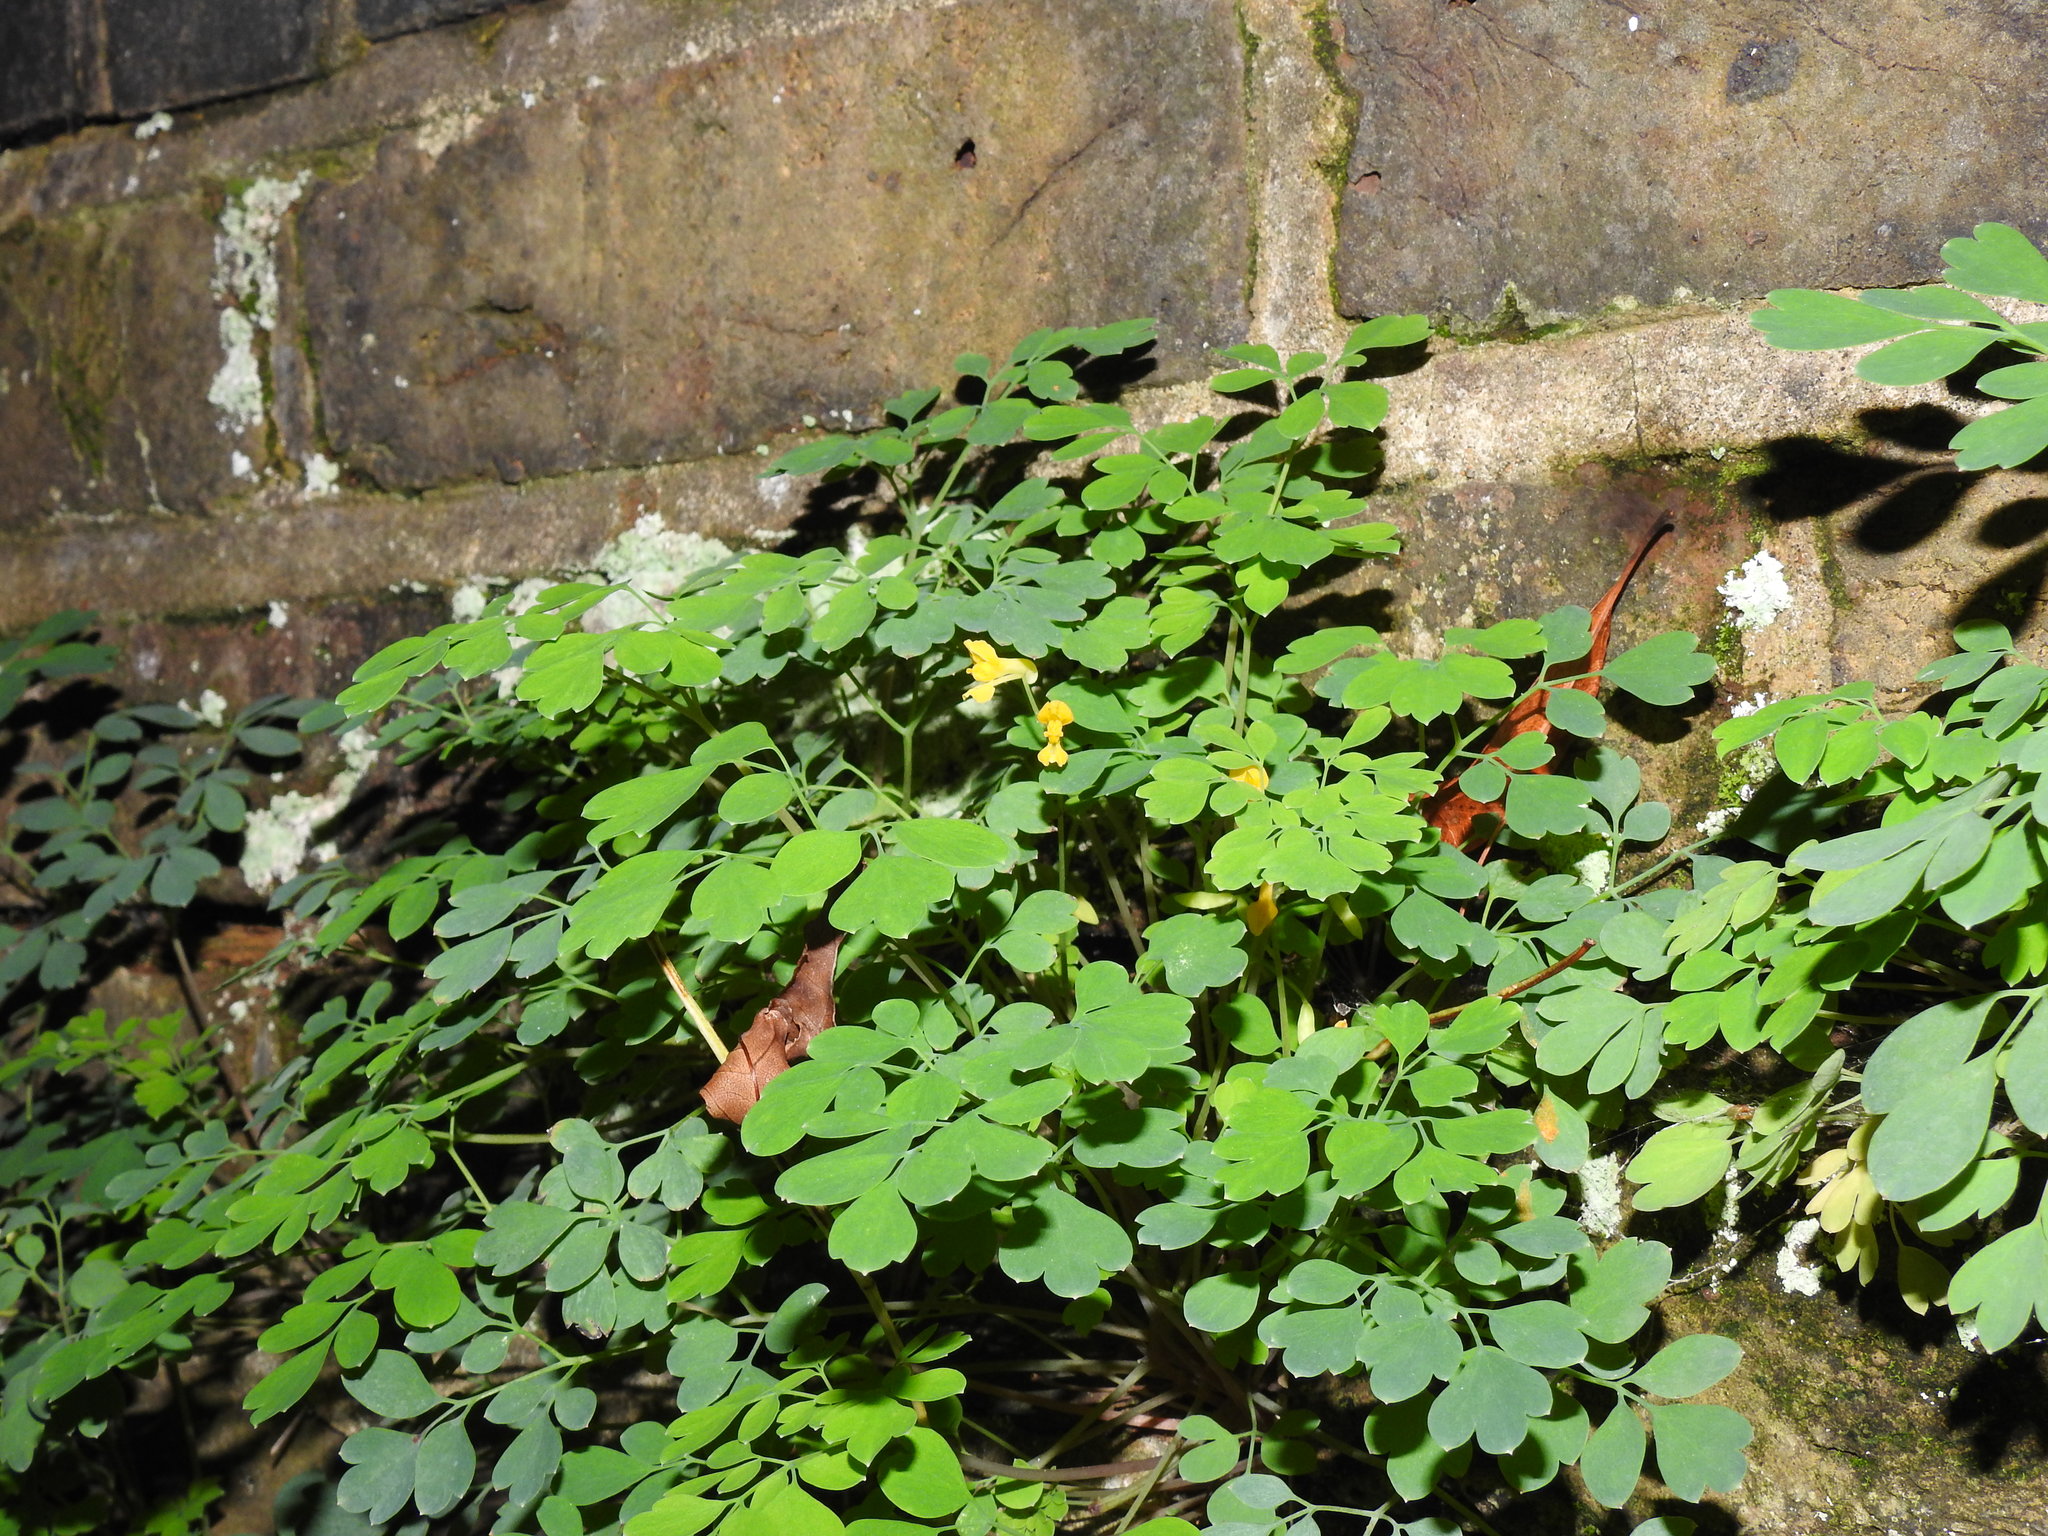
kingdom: Plantae
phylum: Tracheophyta
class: Magnoliopsida
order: Ranunculales
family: Papaveraceae
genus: Pseudofumaria
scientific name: Pseudofumaria lutea
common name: Yellow corydalis
